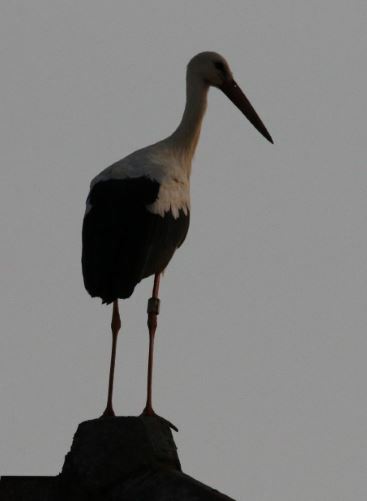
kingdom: Animalia
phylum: Chordata
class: Aves
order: Ciconiiformes
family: Ciconiidae
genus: Ciconia
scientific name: Ciconia ciconia
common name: White stork
